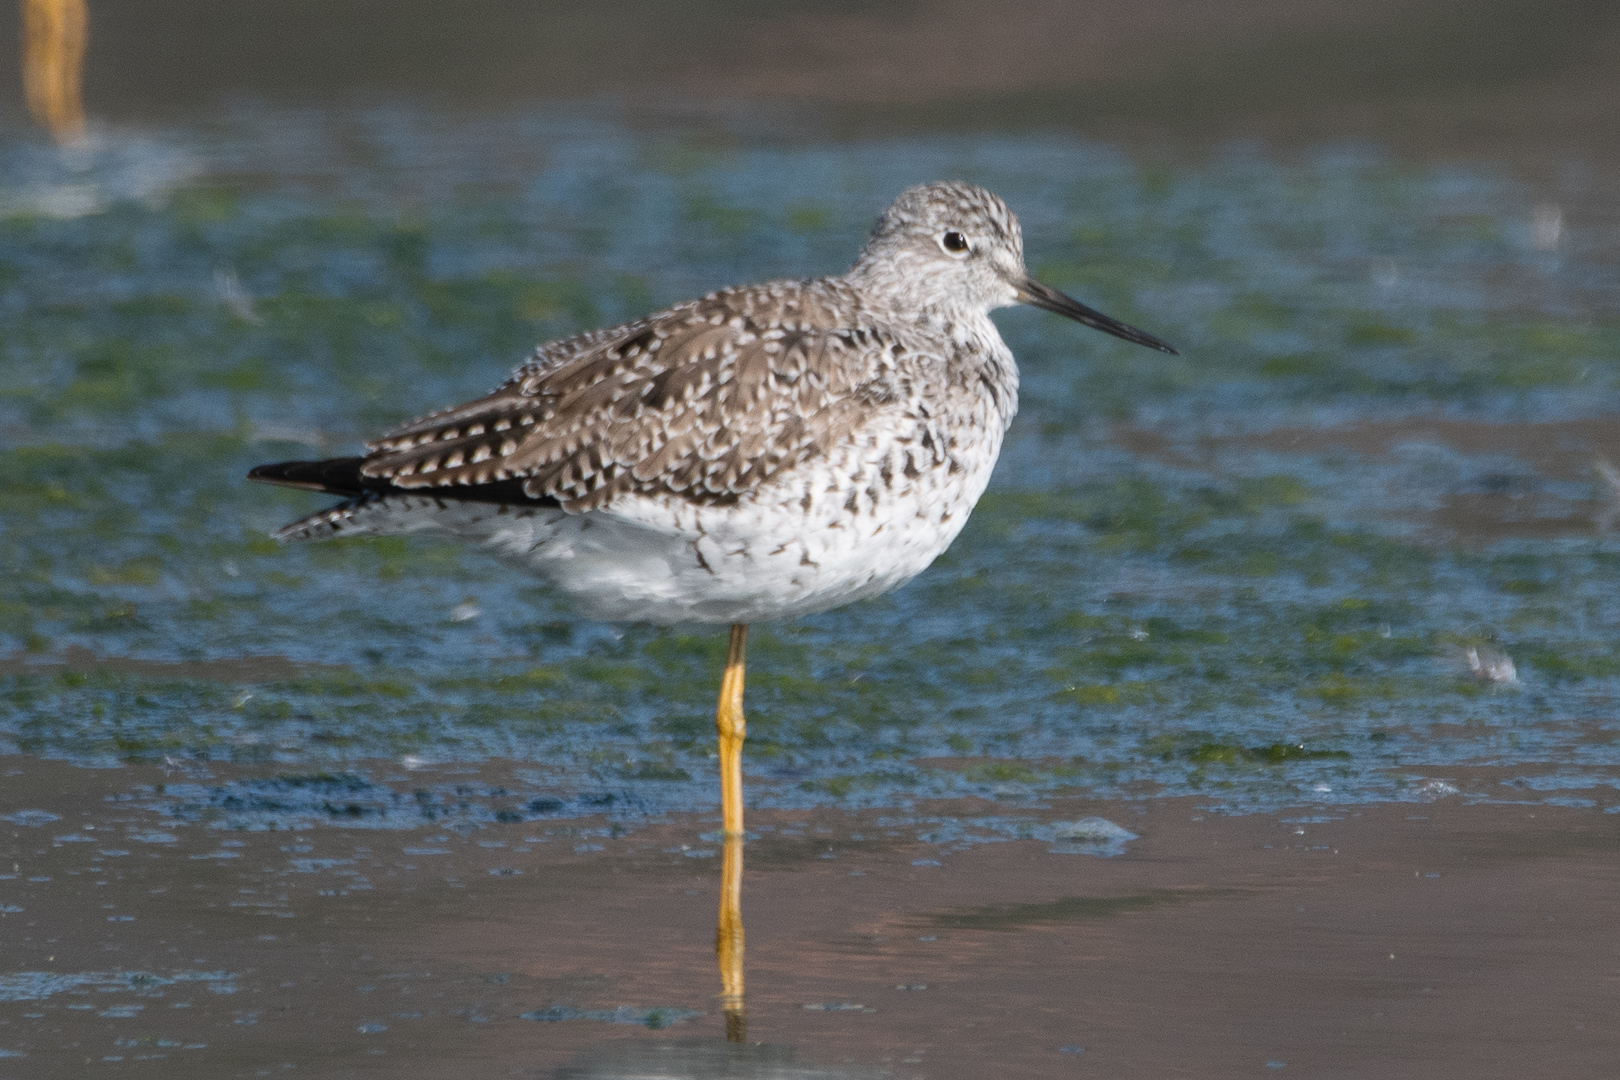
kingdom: Animalia
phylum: Chordata
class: Aves
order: Charadriiformes
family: Scolopacidae
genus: Tringa
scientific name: Tringa melanoleuca
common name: Greater yellowlegs
